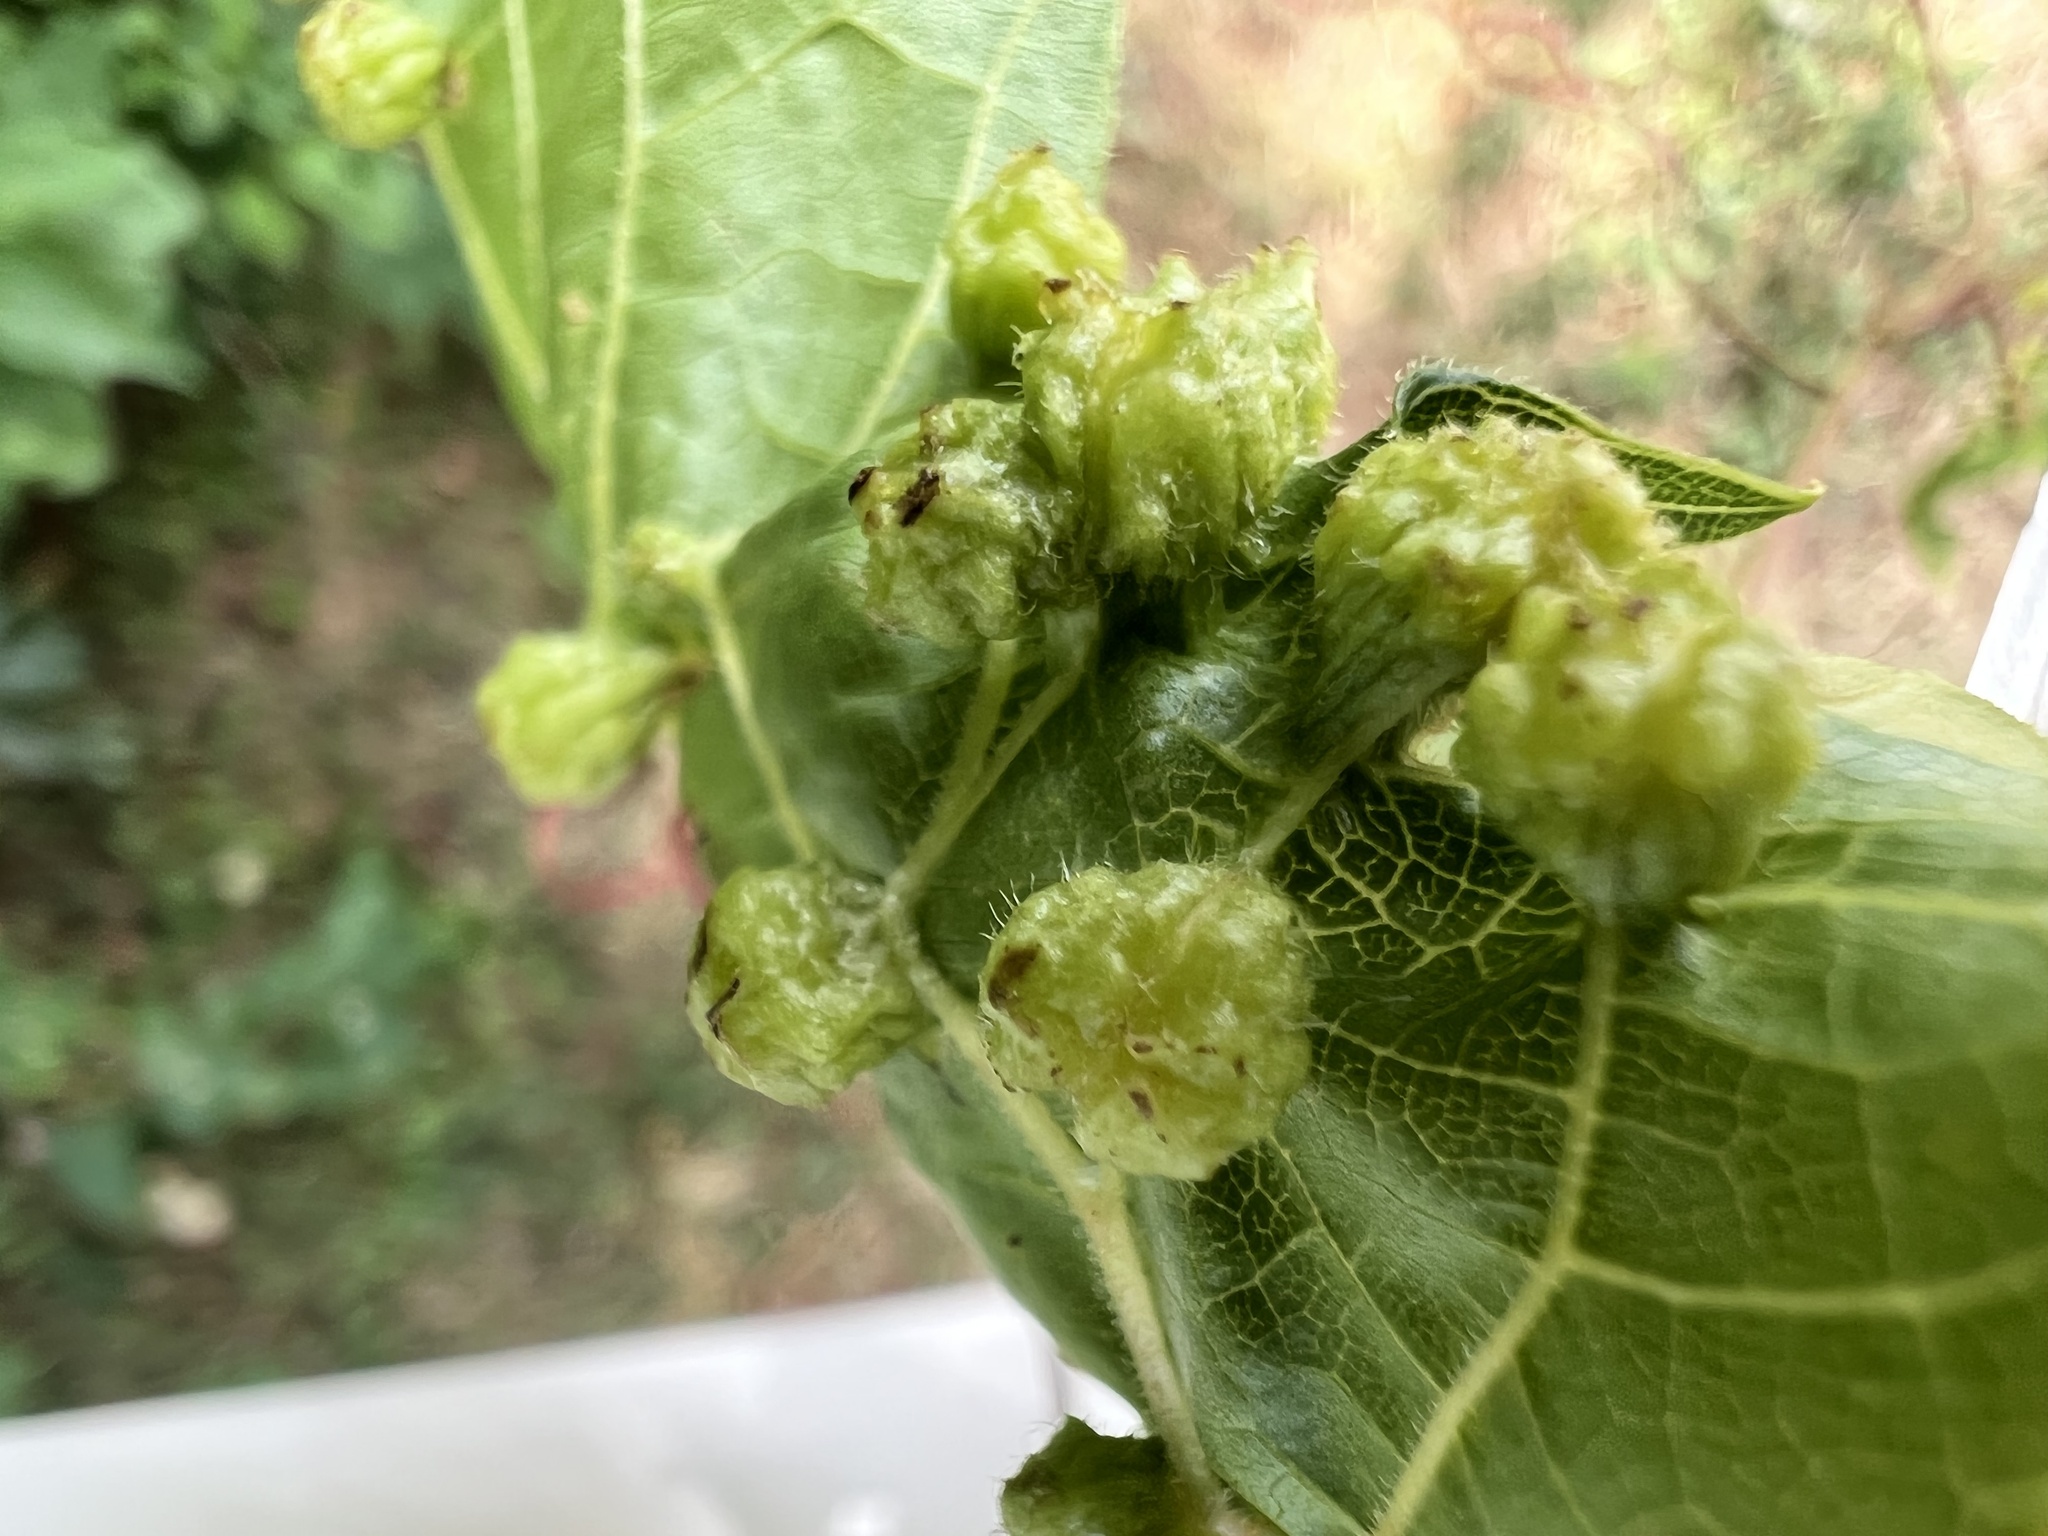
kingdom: Animalia
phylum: Arthropoda
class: Insecta
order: Hemiptera
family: Phylloxeridae
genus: Daktulosphaira
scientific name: Daktulosphaira vitifoliae
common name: Grape phylloxera
